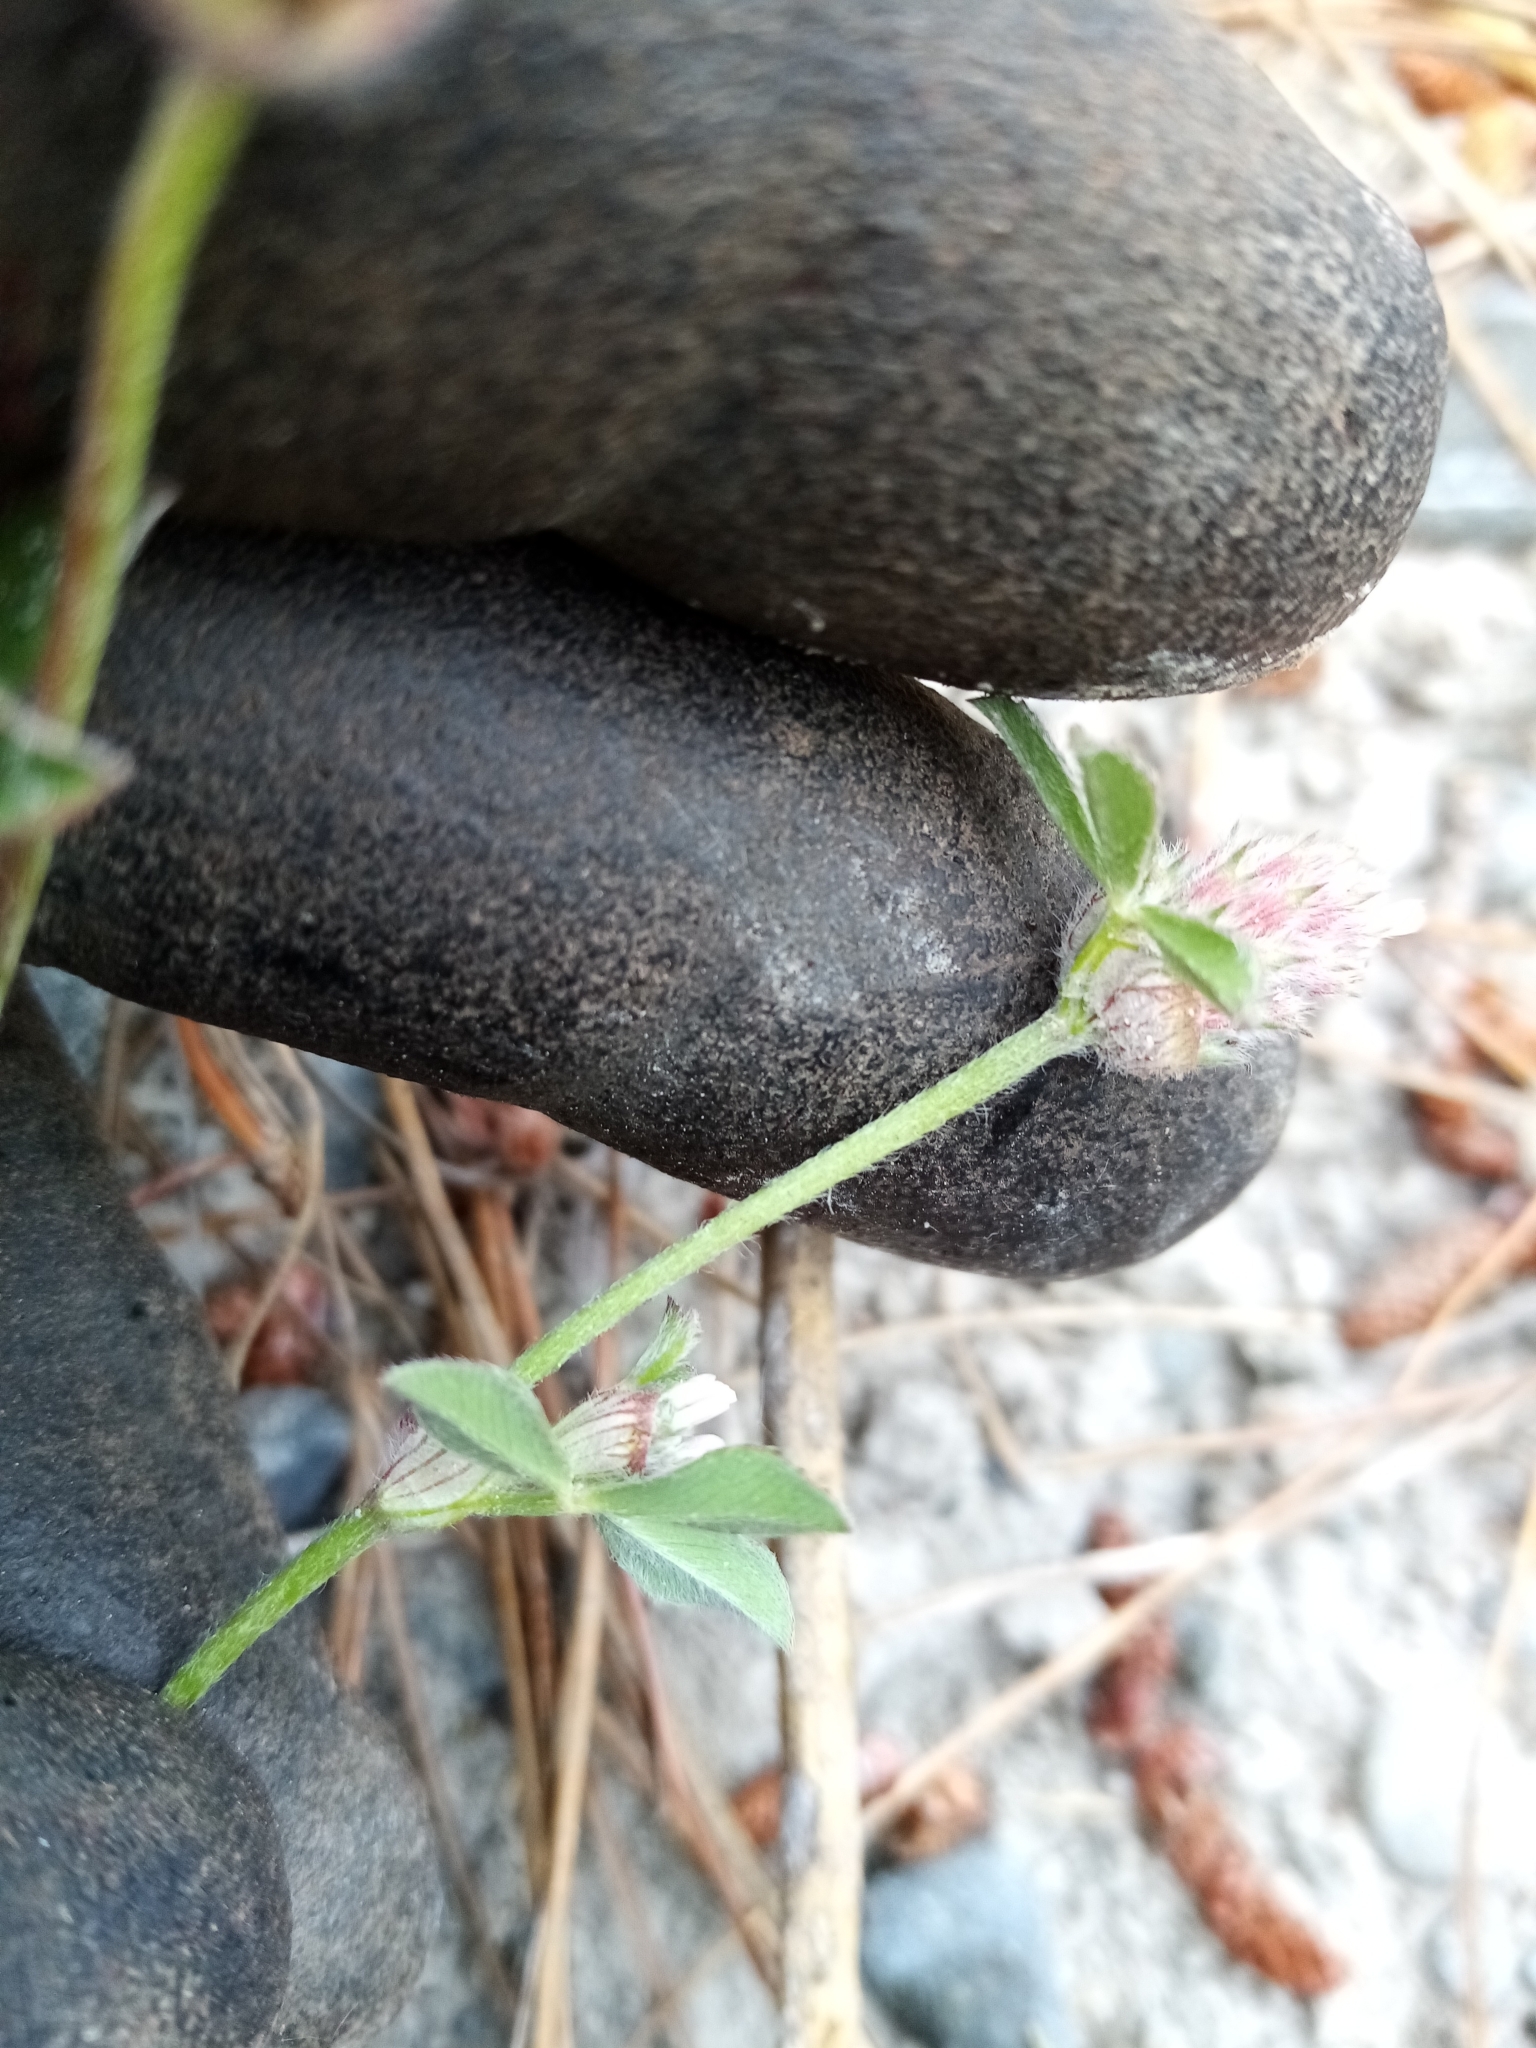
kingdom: Plantae
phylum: Tracheophyta
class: Magnoliopsida
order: Fabales
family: Fabaceae
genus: Trifolium
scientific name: Trifolium striatum
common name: Knotted clover
